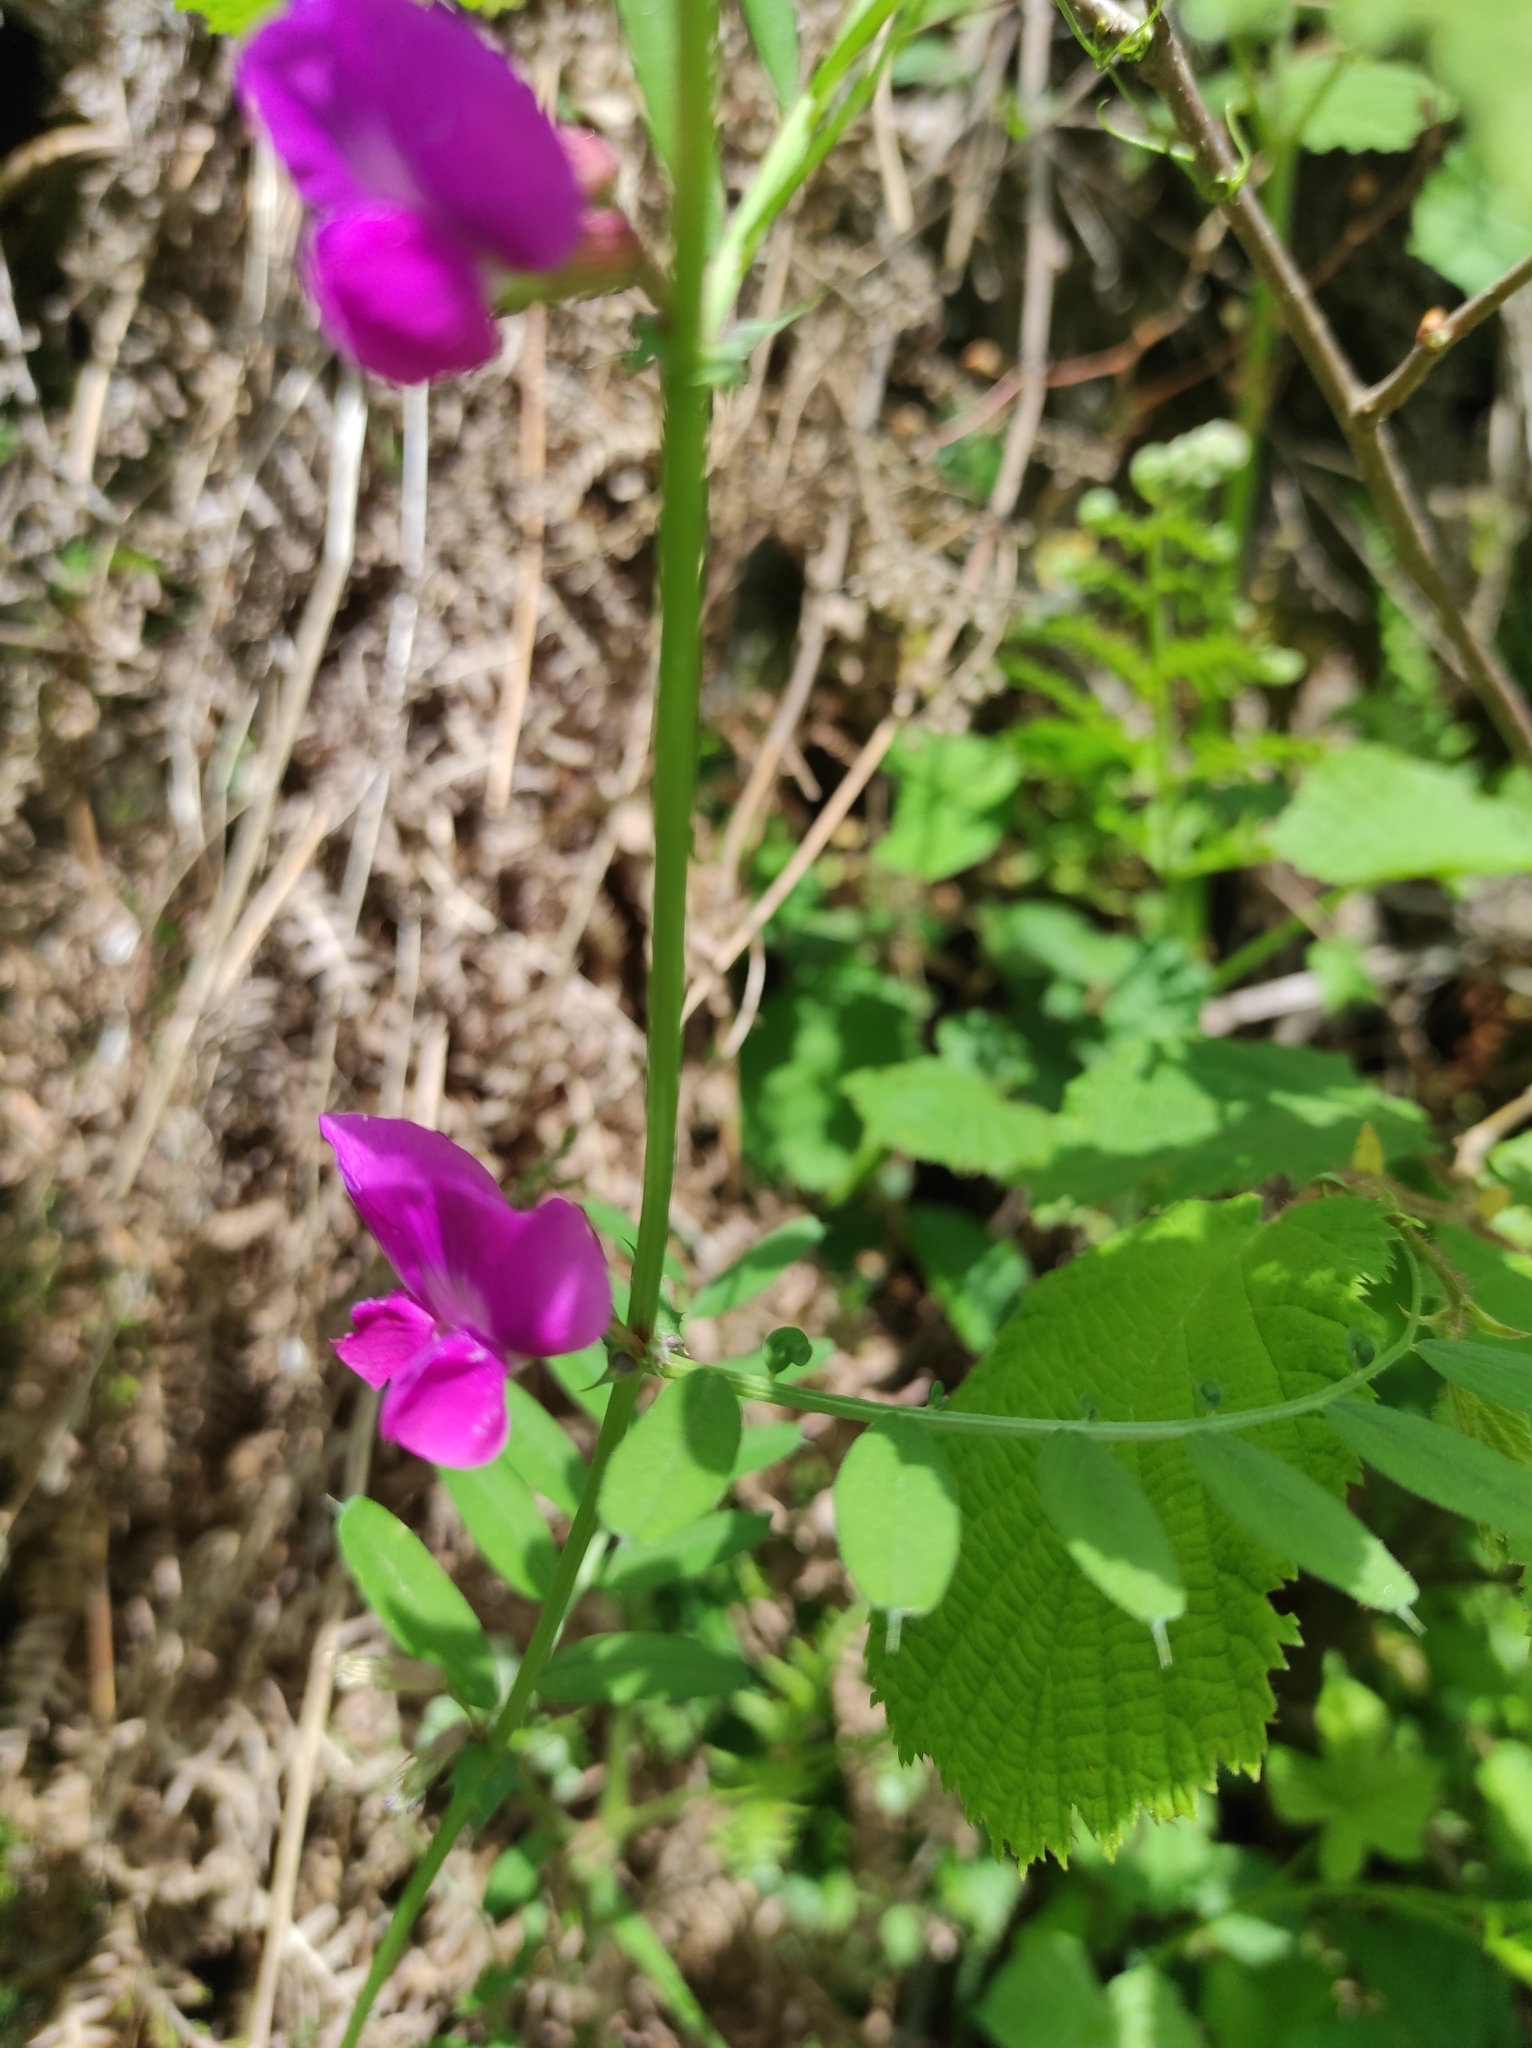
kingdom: Plantae
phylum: Tracheophyta
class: Magnoliopsida
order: Fabales
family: Fabaceae
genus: Vicia
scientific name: Vicia sativa
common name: Garden vetch
